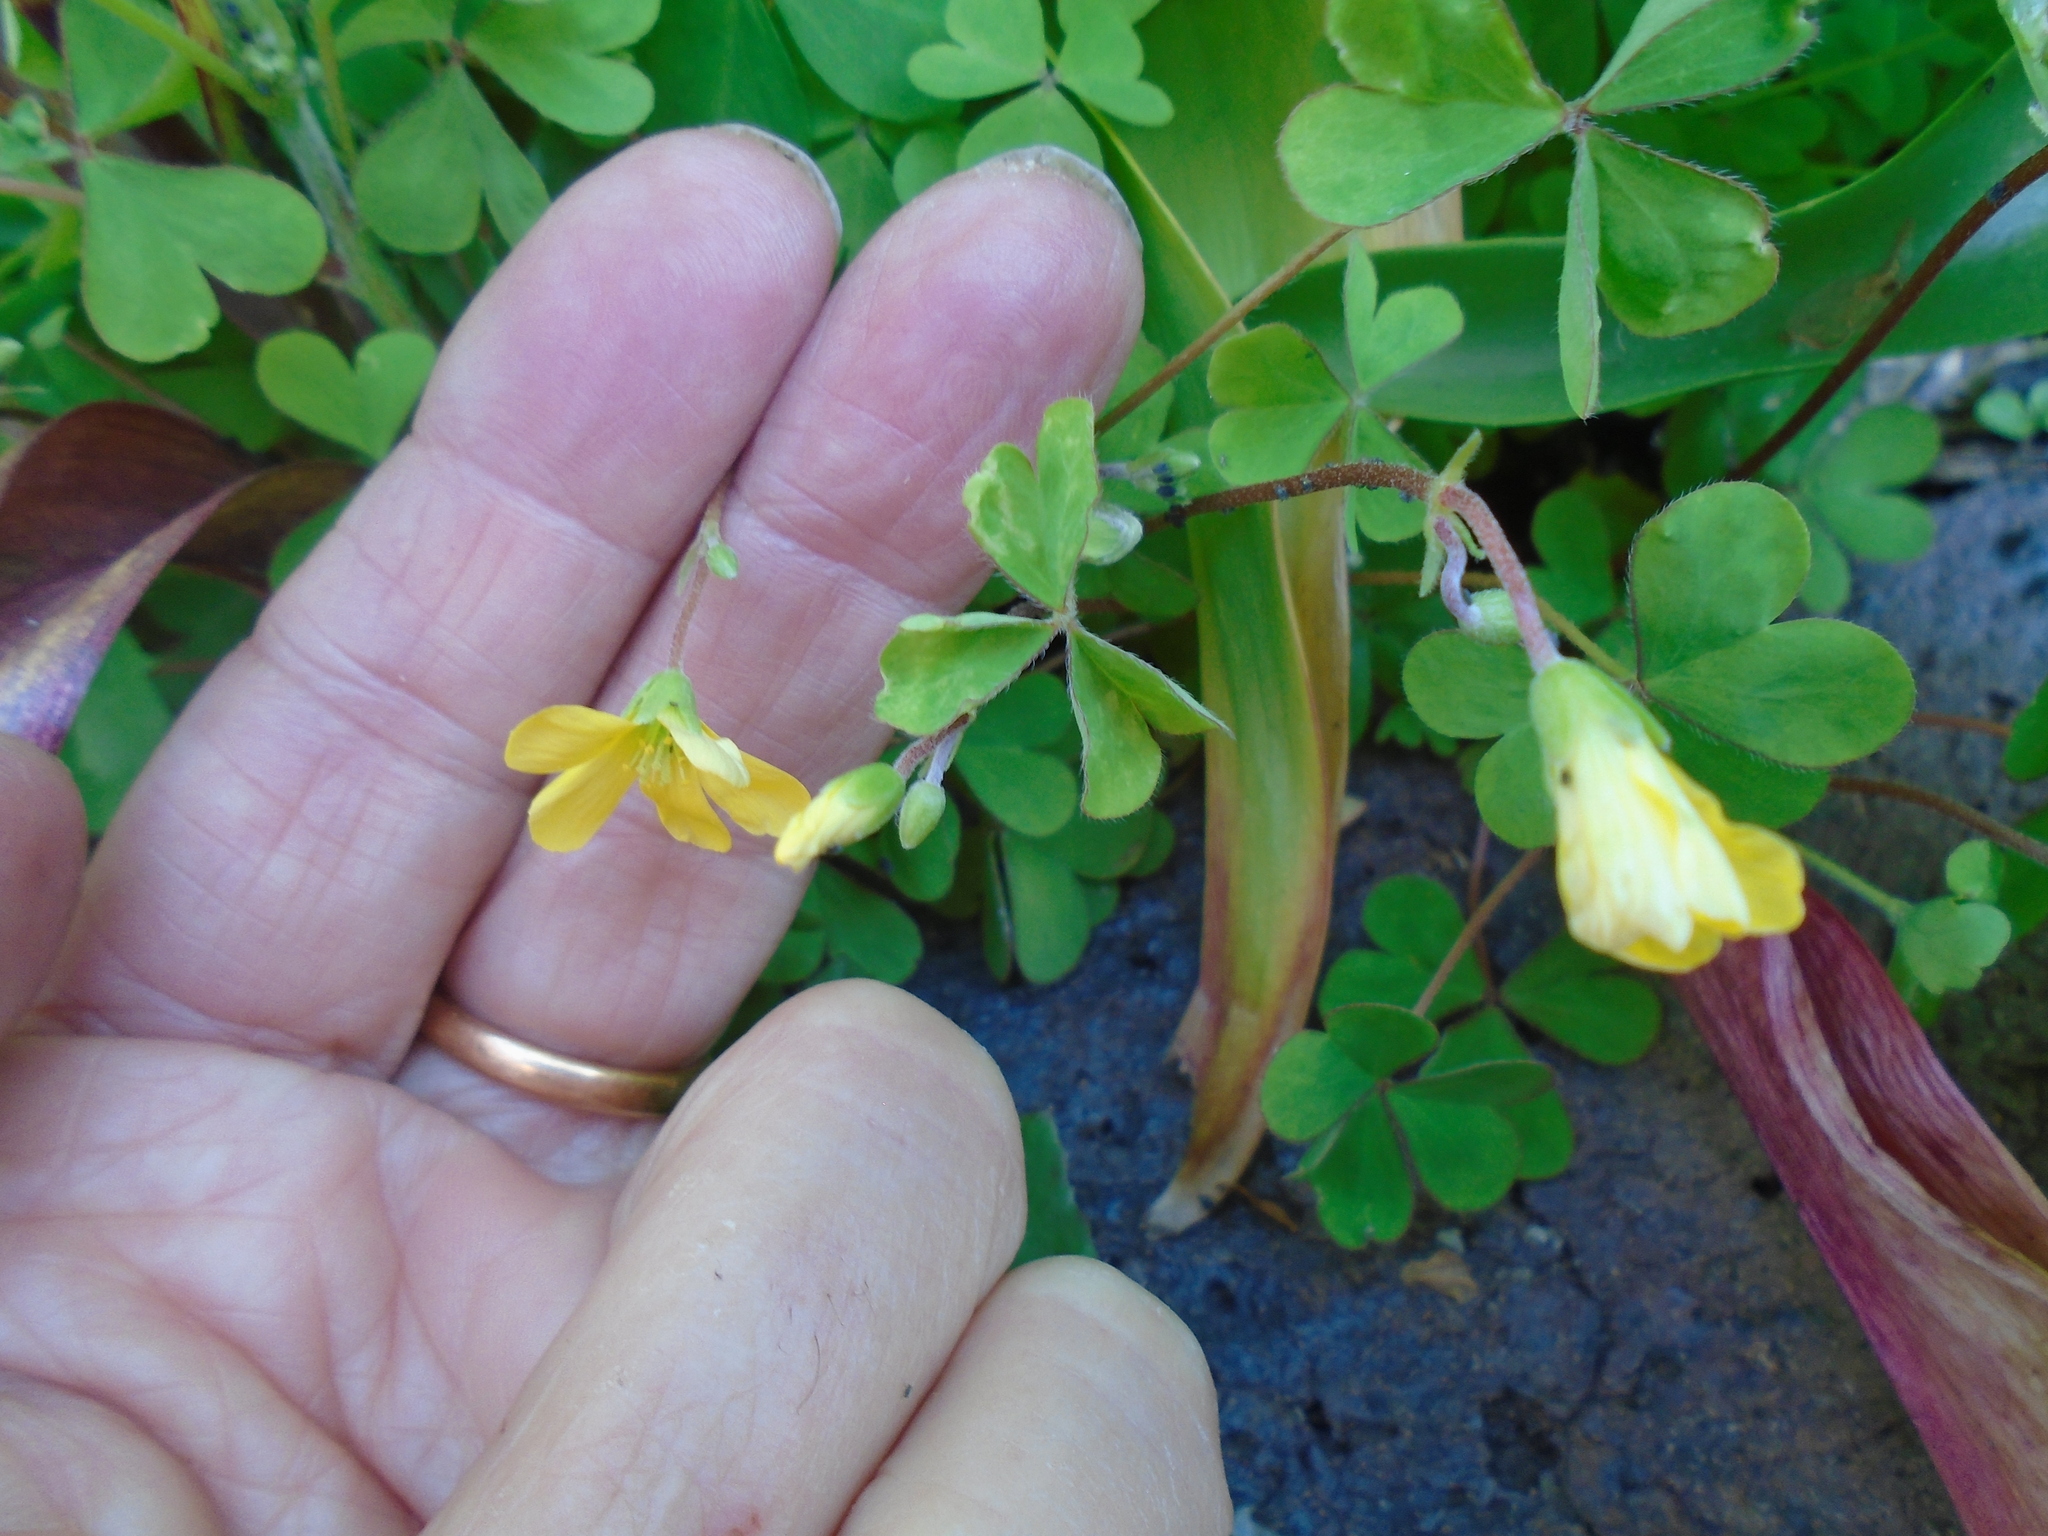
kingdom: Plantae
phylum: Tracheophyta
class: Magnoliopsida
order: Oxalidales
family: Oxalidaceae
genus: Oxalis
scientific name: Oxalis corniculata
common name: Procumbent yellow-sorrel
